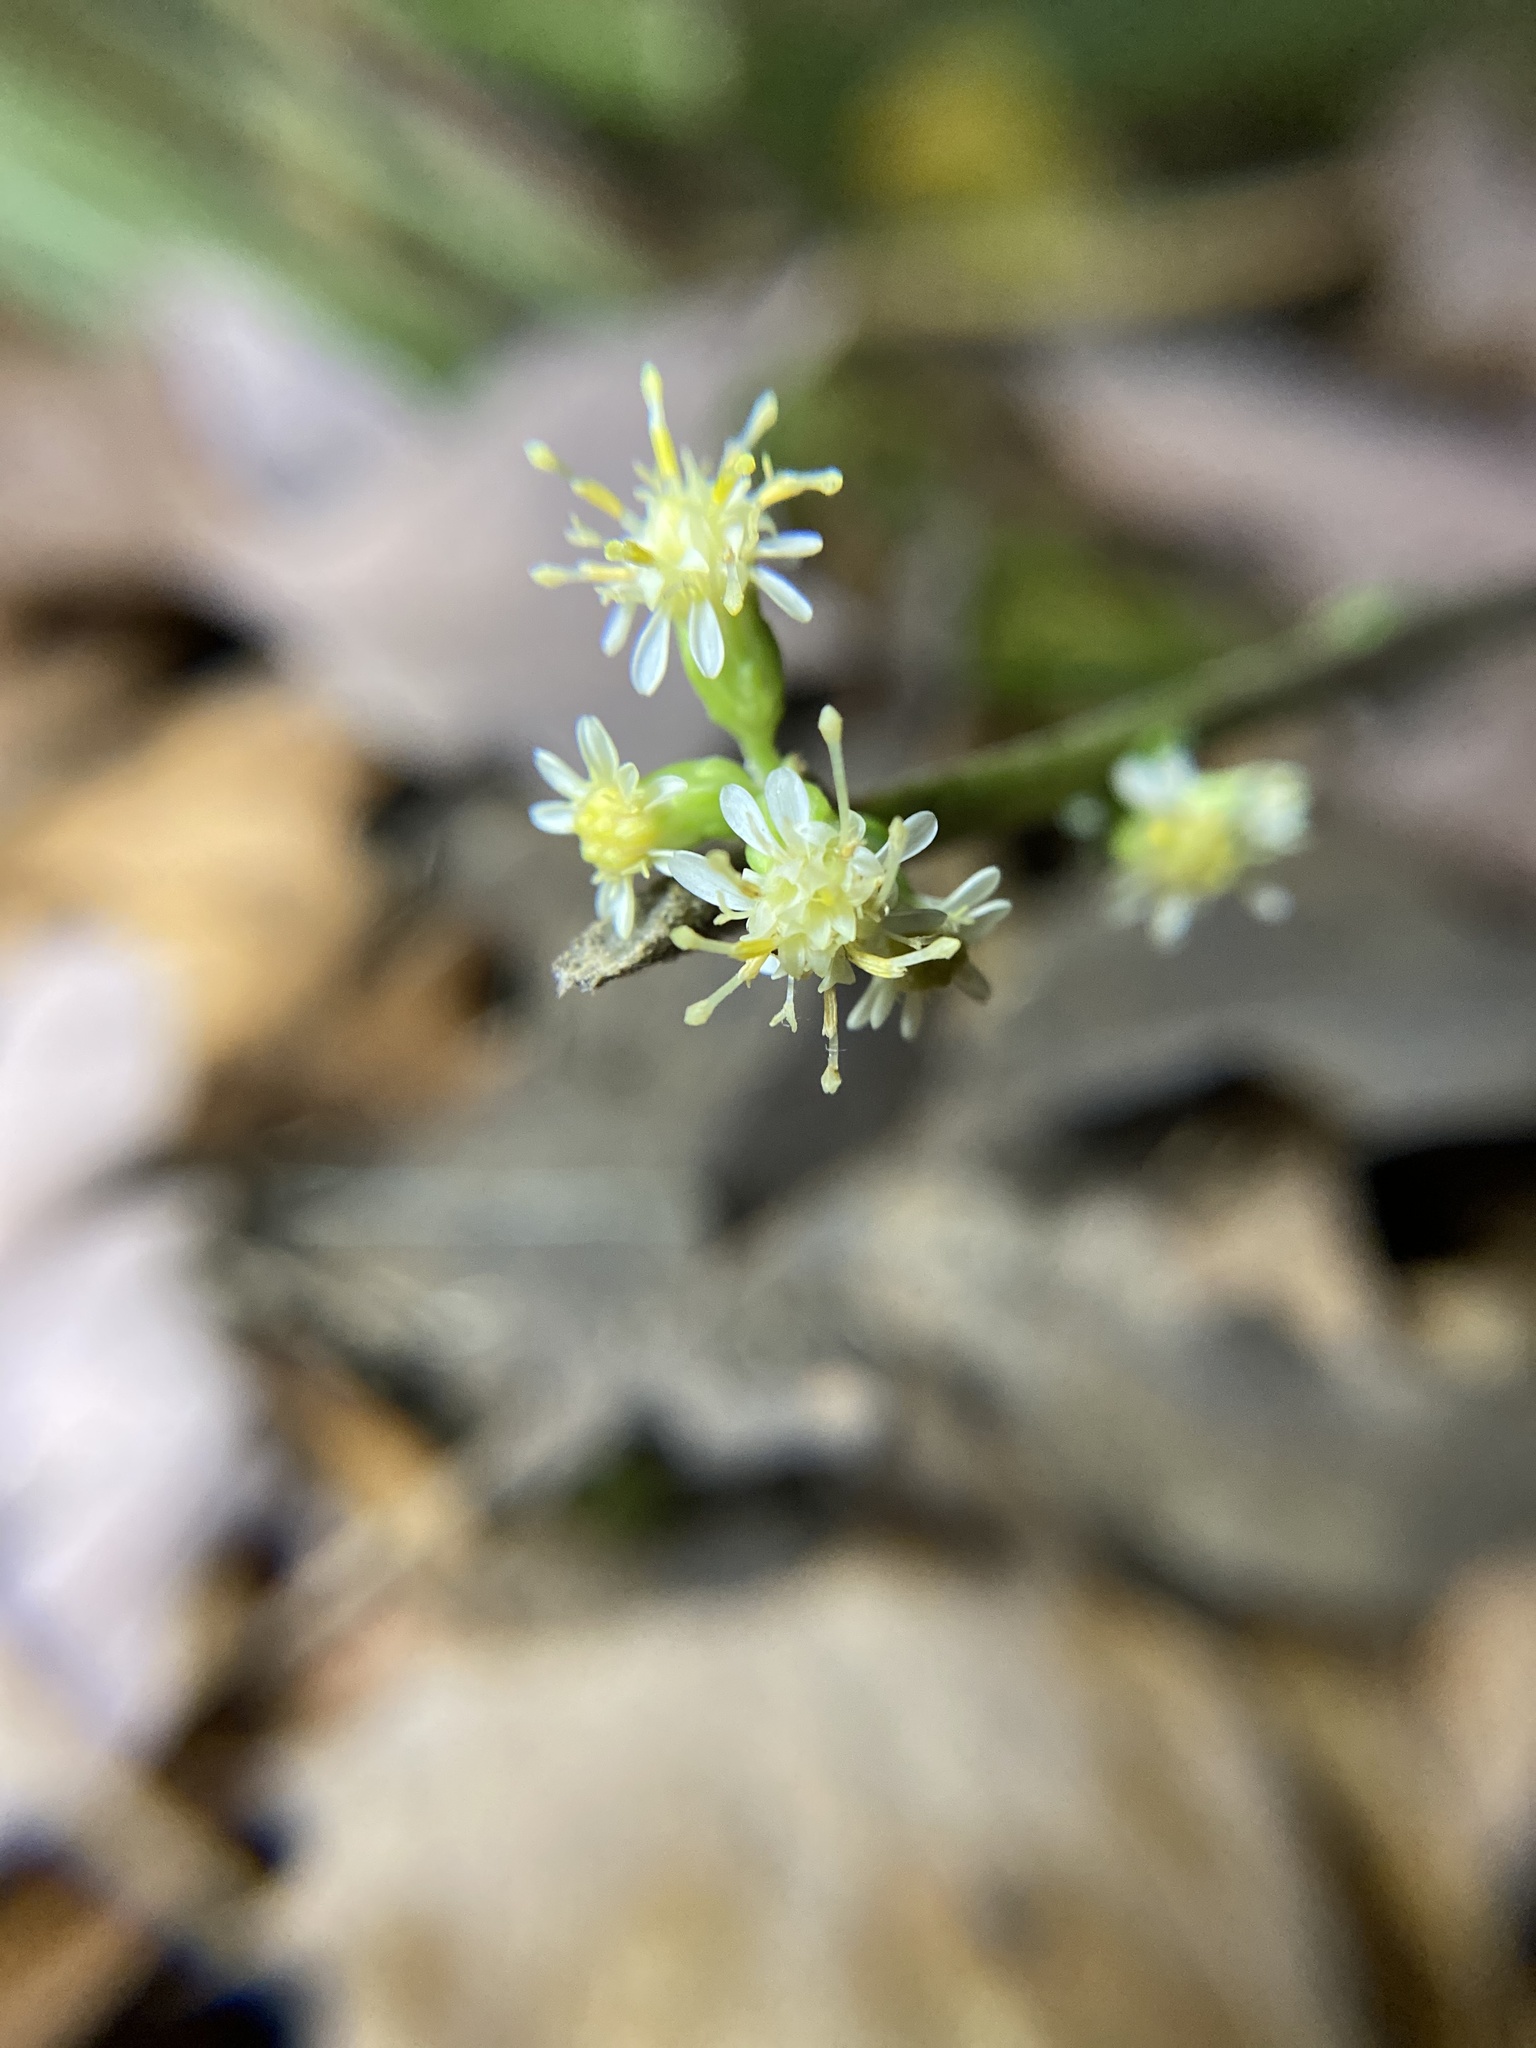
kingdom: Plantae
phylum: Tracheophyta
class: Magnoliopsida
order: Asterales
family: Asteraceae
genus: Solidago
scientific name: Solidago bicolor
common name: Silverrod
